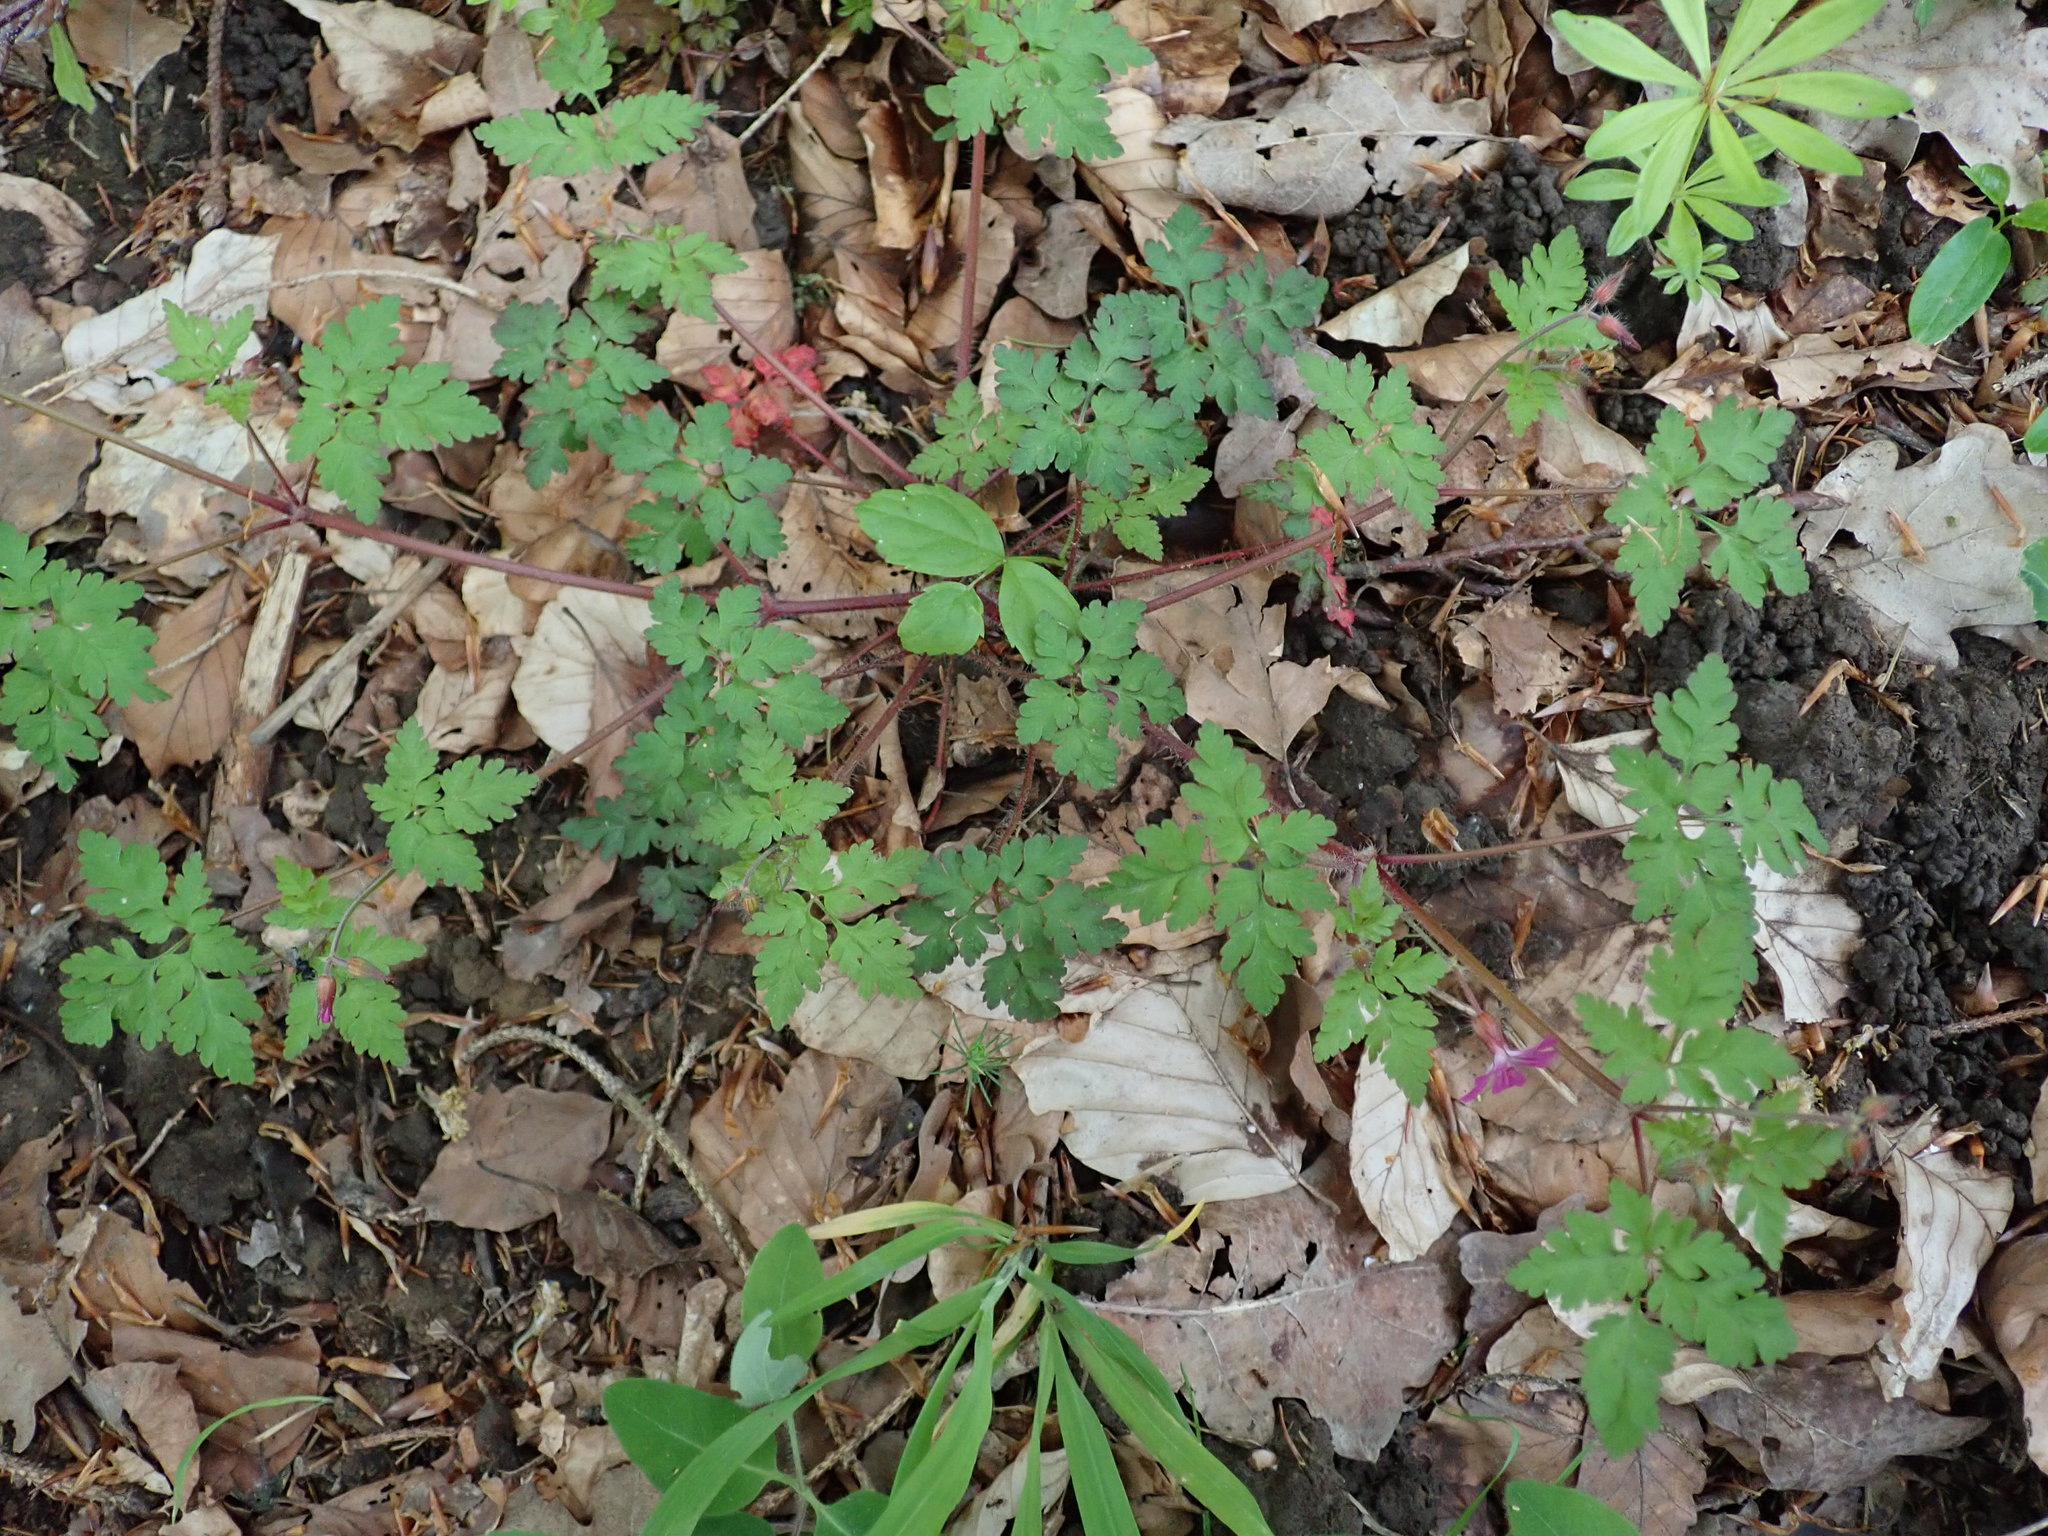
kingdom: Plantae
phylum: Tracheophyta
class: Magnoliopsida
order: Geraniales
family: Geraniaceae
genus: Geranium
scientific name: Geranium robertianum
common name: Herb-robert
